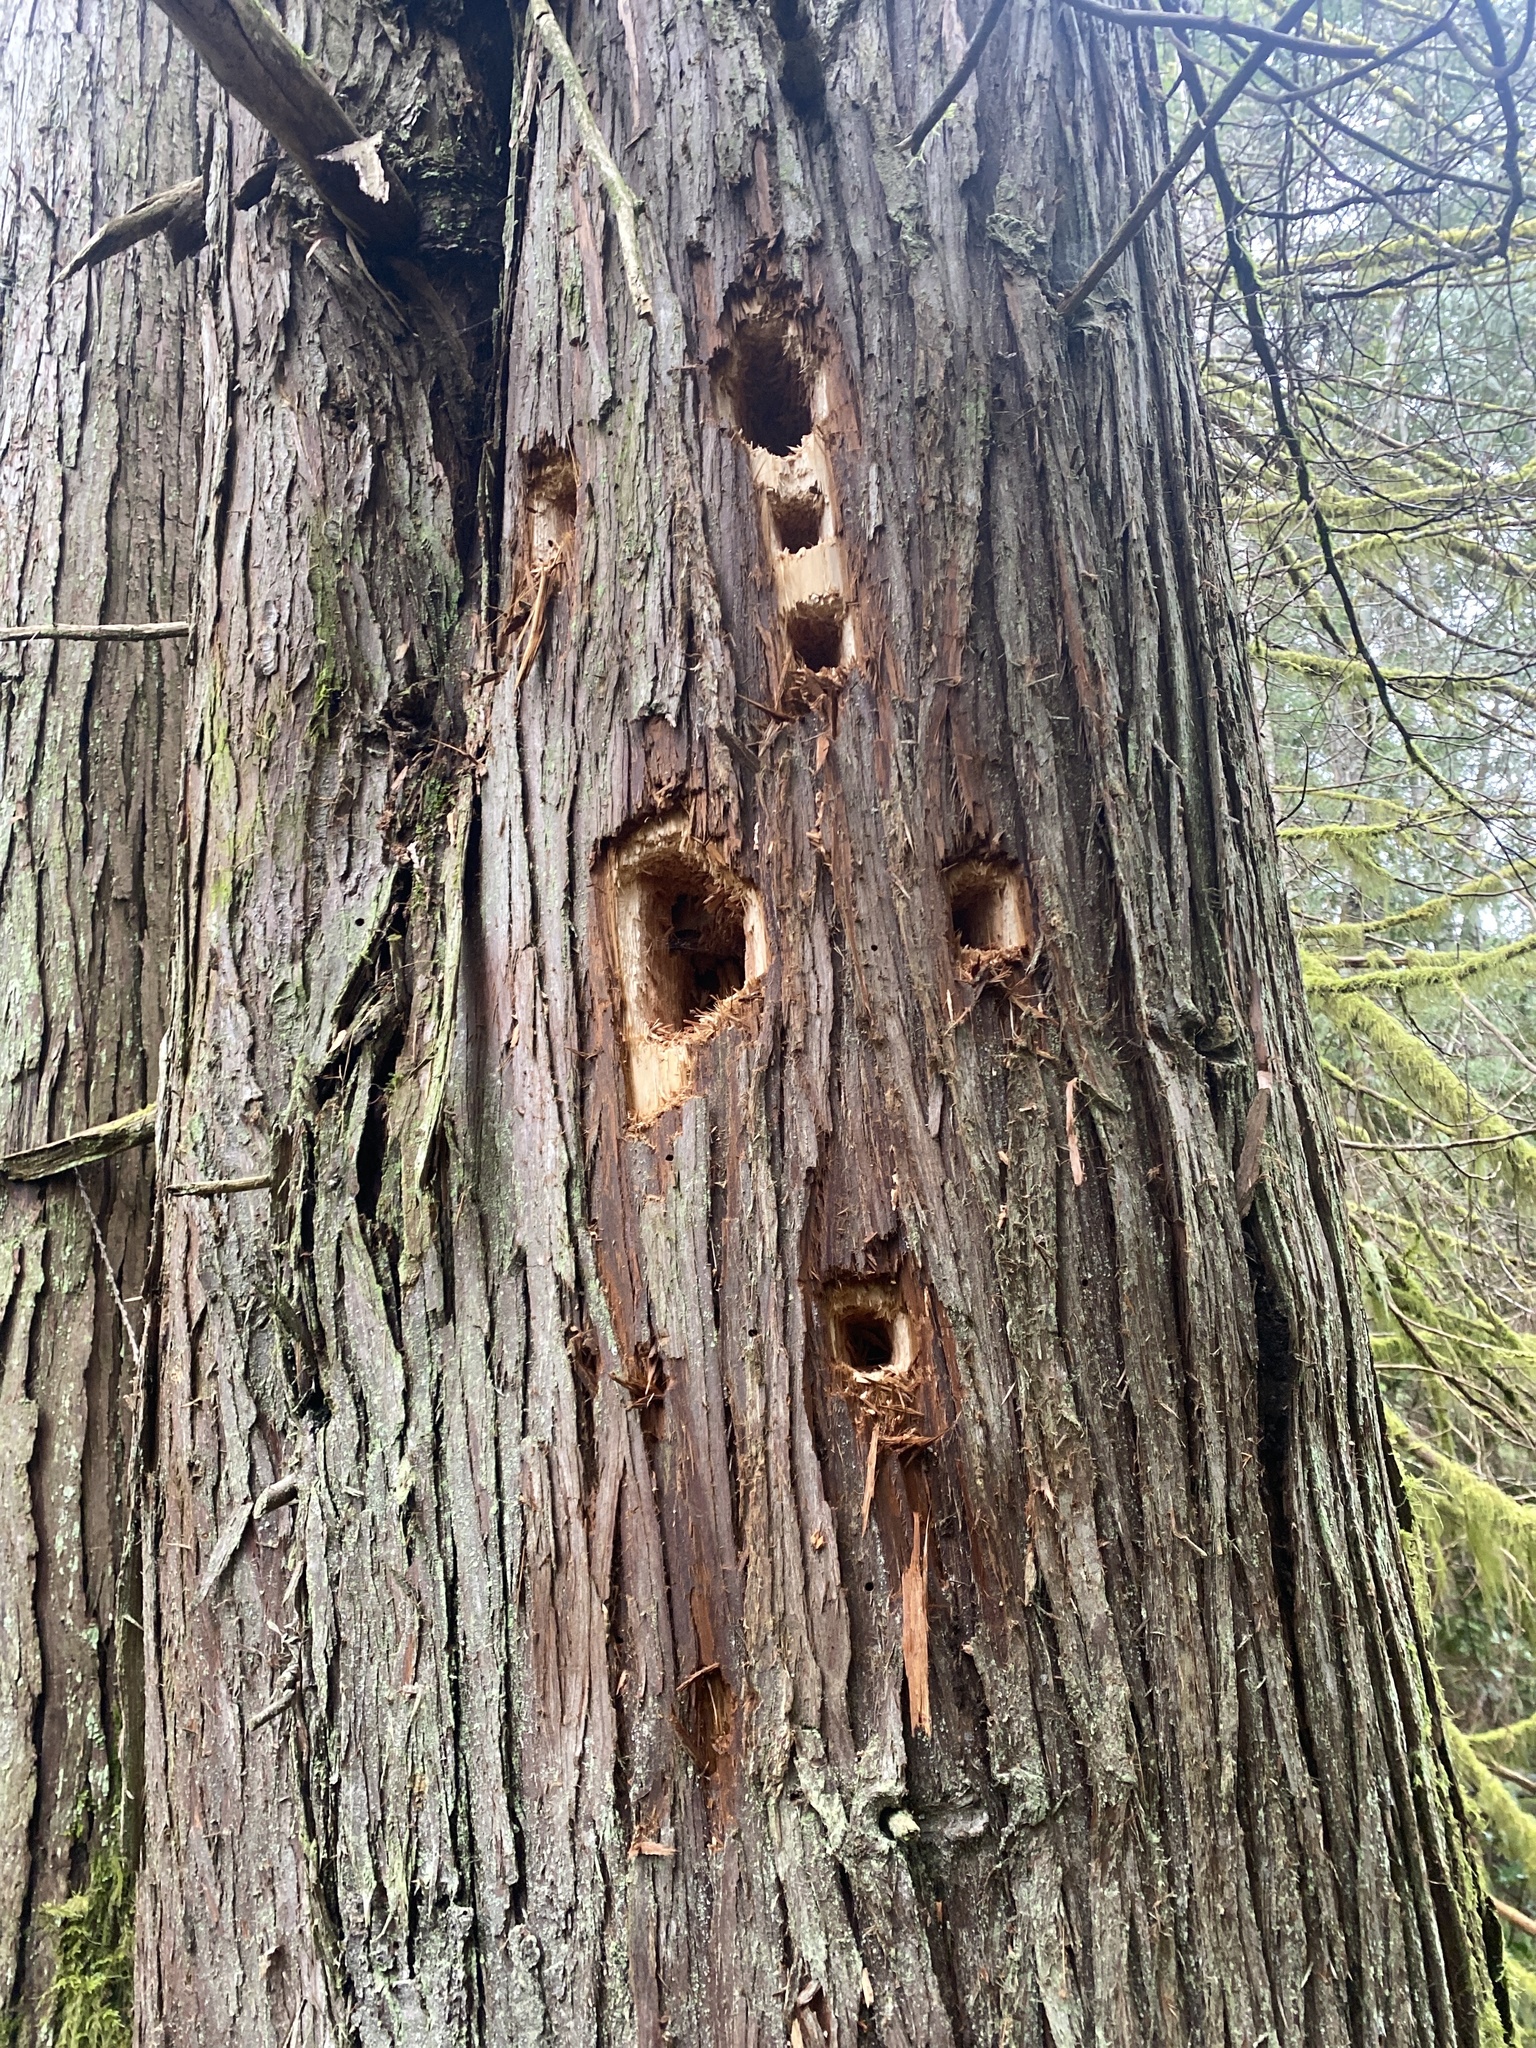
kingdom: Animalia
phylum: Chordata
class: Aves
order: Piciformes
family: Picidae
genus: Dryocopus
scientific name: Dryocopus pileatus
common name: Pileated woodpecker
